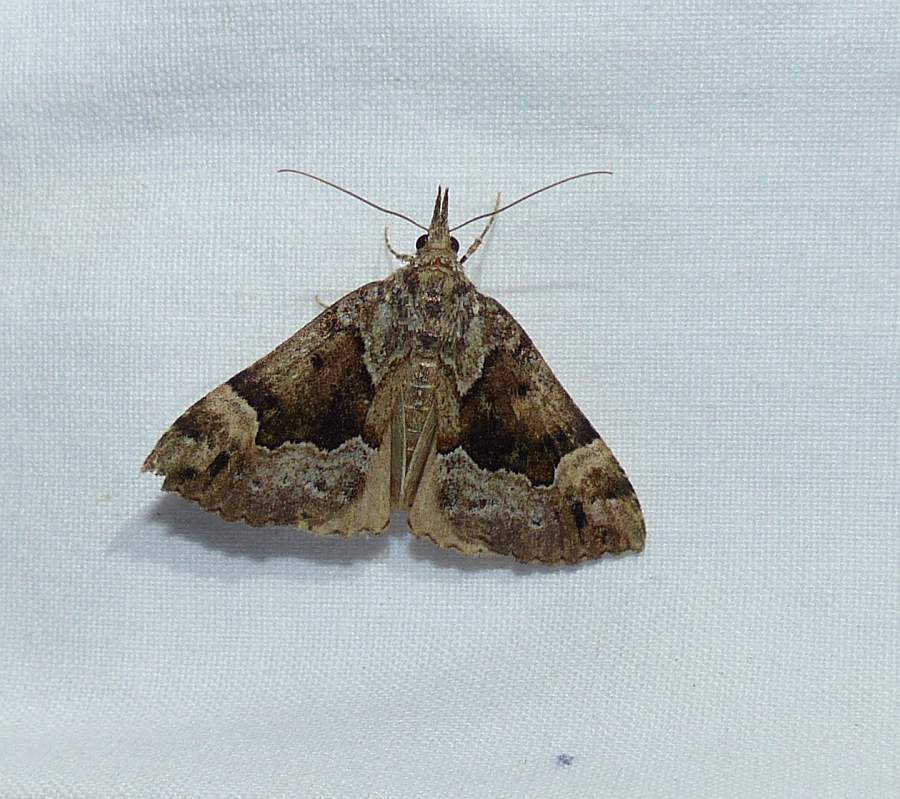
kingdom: Animalia
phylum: Arthropoda
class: Insecta
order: Lepidoptera
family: Erebidae
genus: Hypena
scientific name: Hypena palparia
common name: Mottled bomolocha moth
